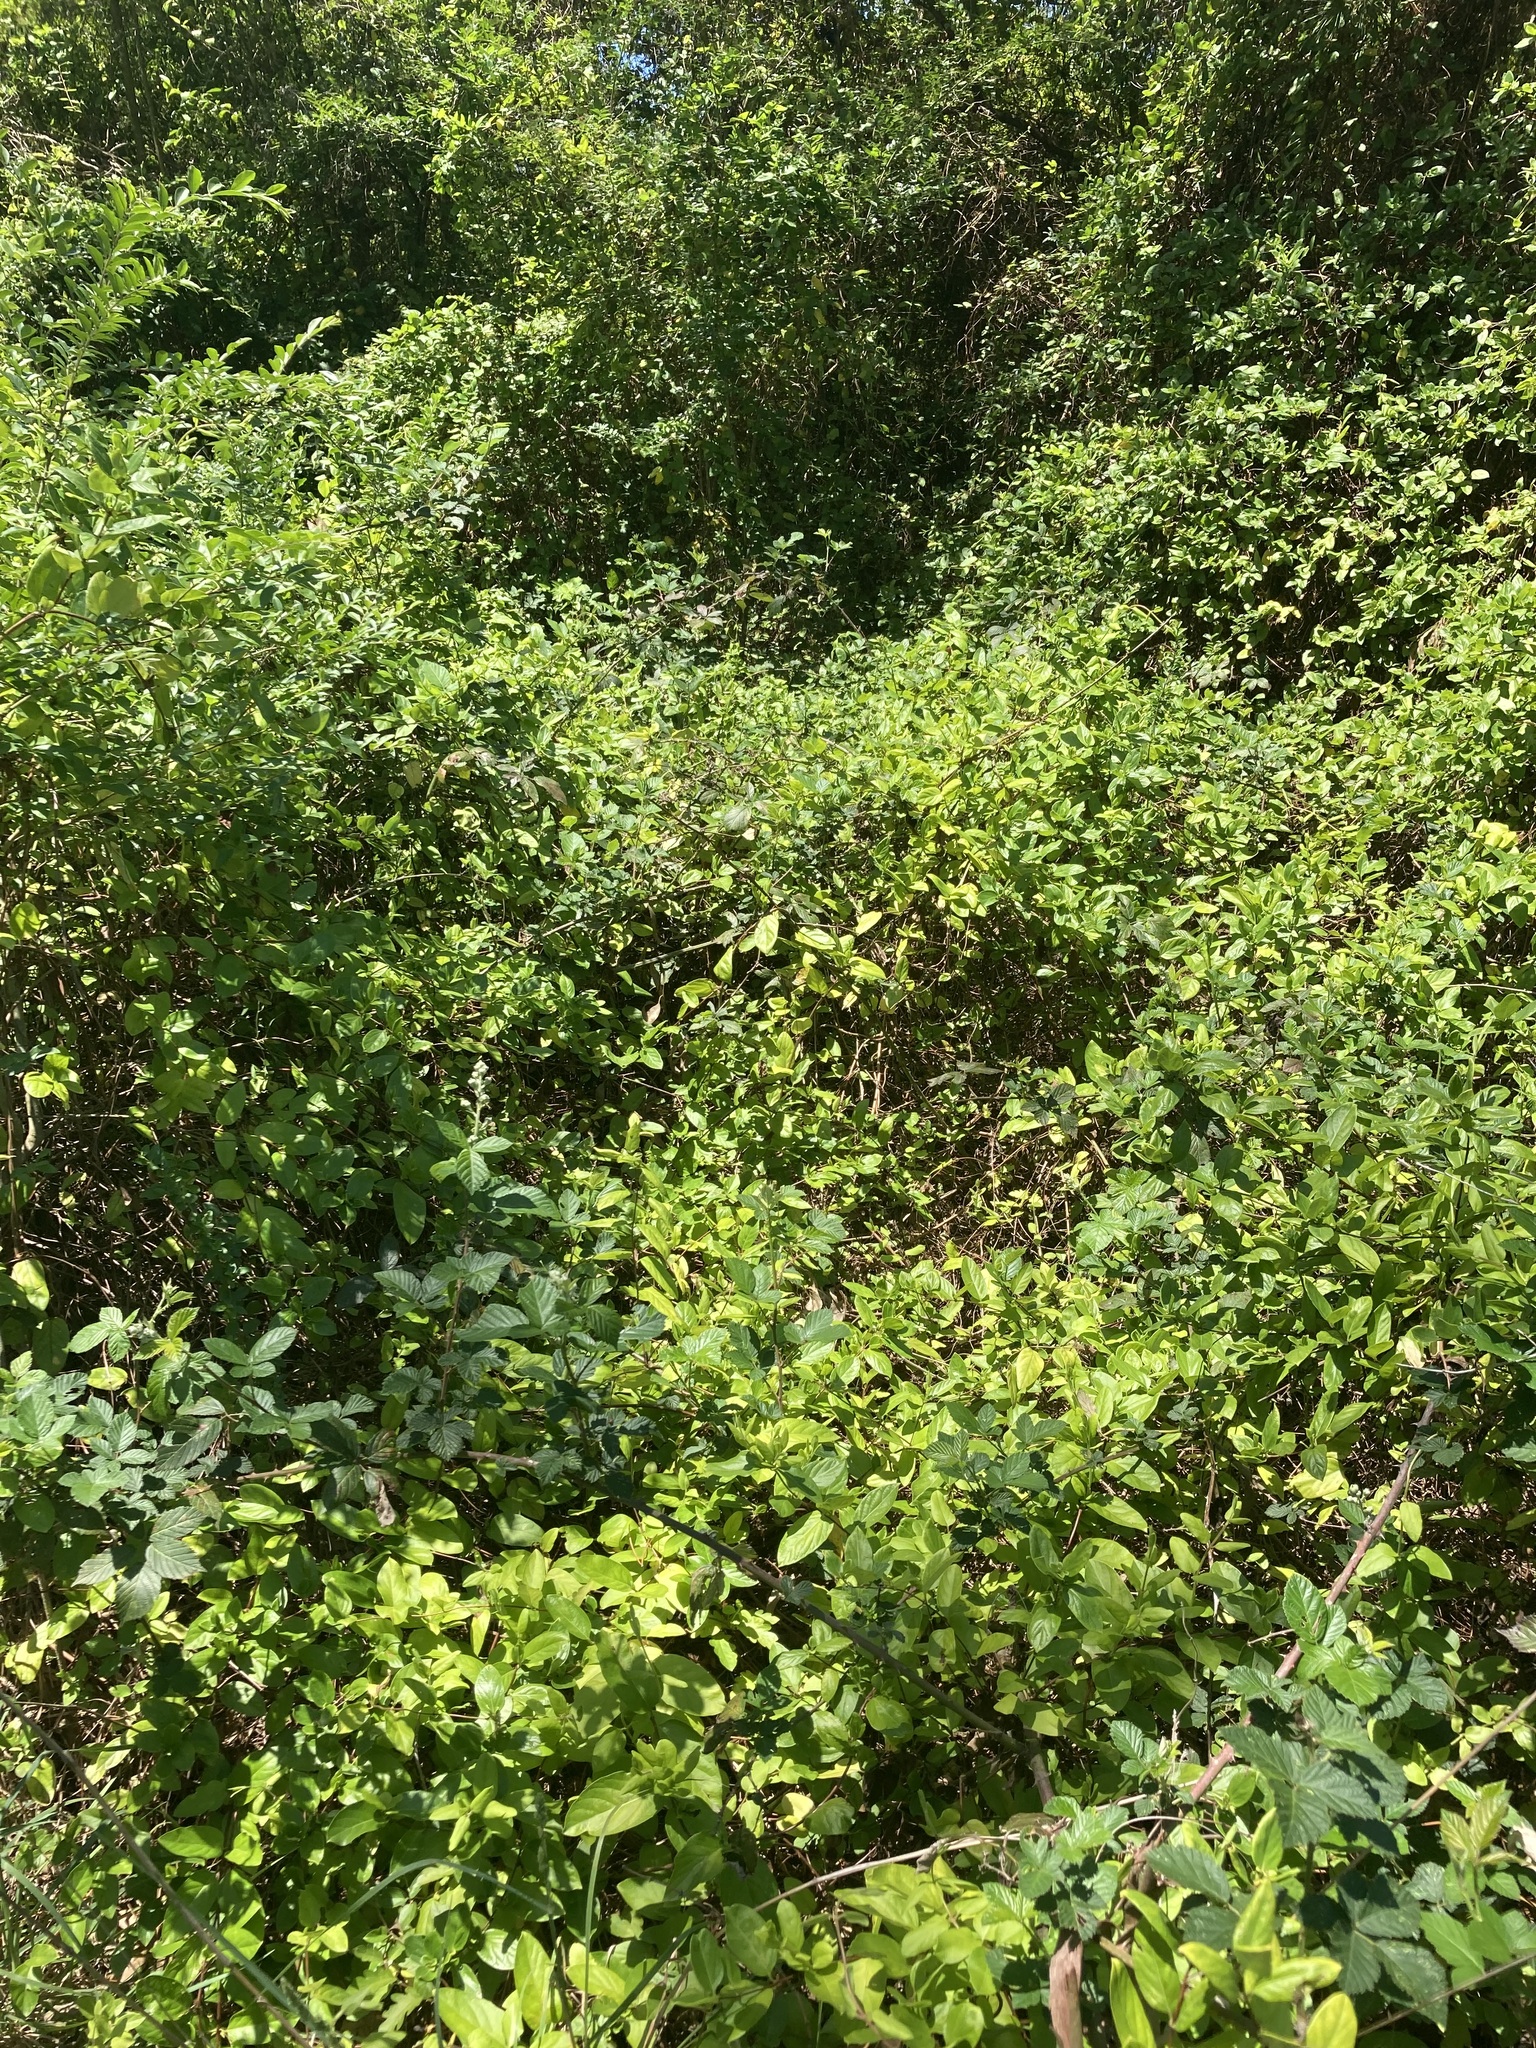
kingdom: Plantae
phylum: Tracheophyta
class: Magnoliopsida
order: Dipsacales
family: Caprifoliaceae
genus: Lonicera
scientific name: Lonicera japonica
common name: Japanese honeysuckle
